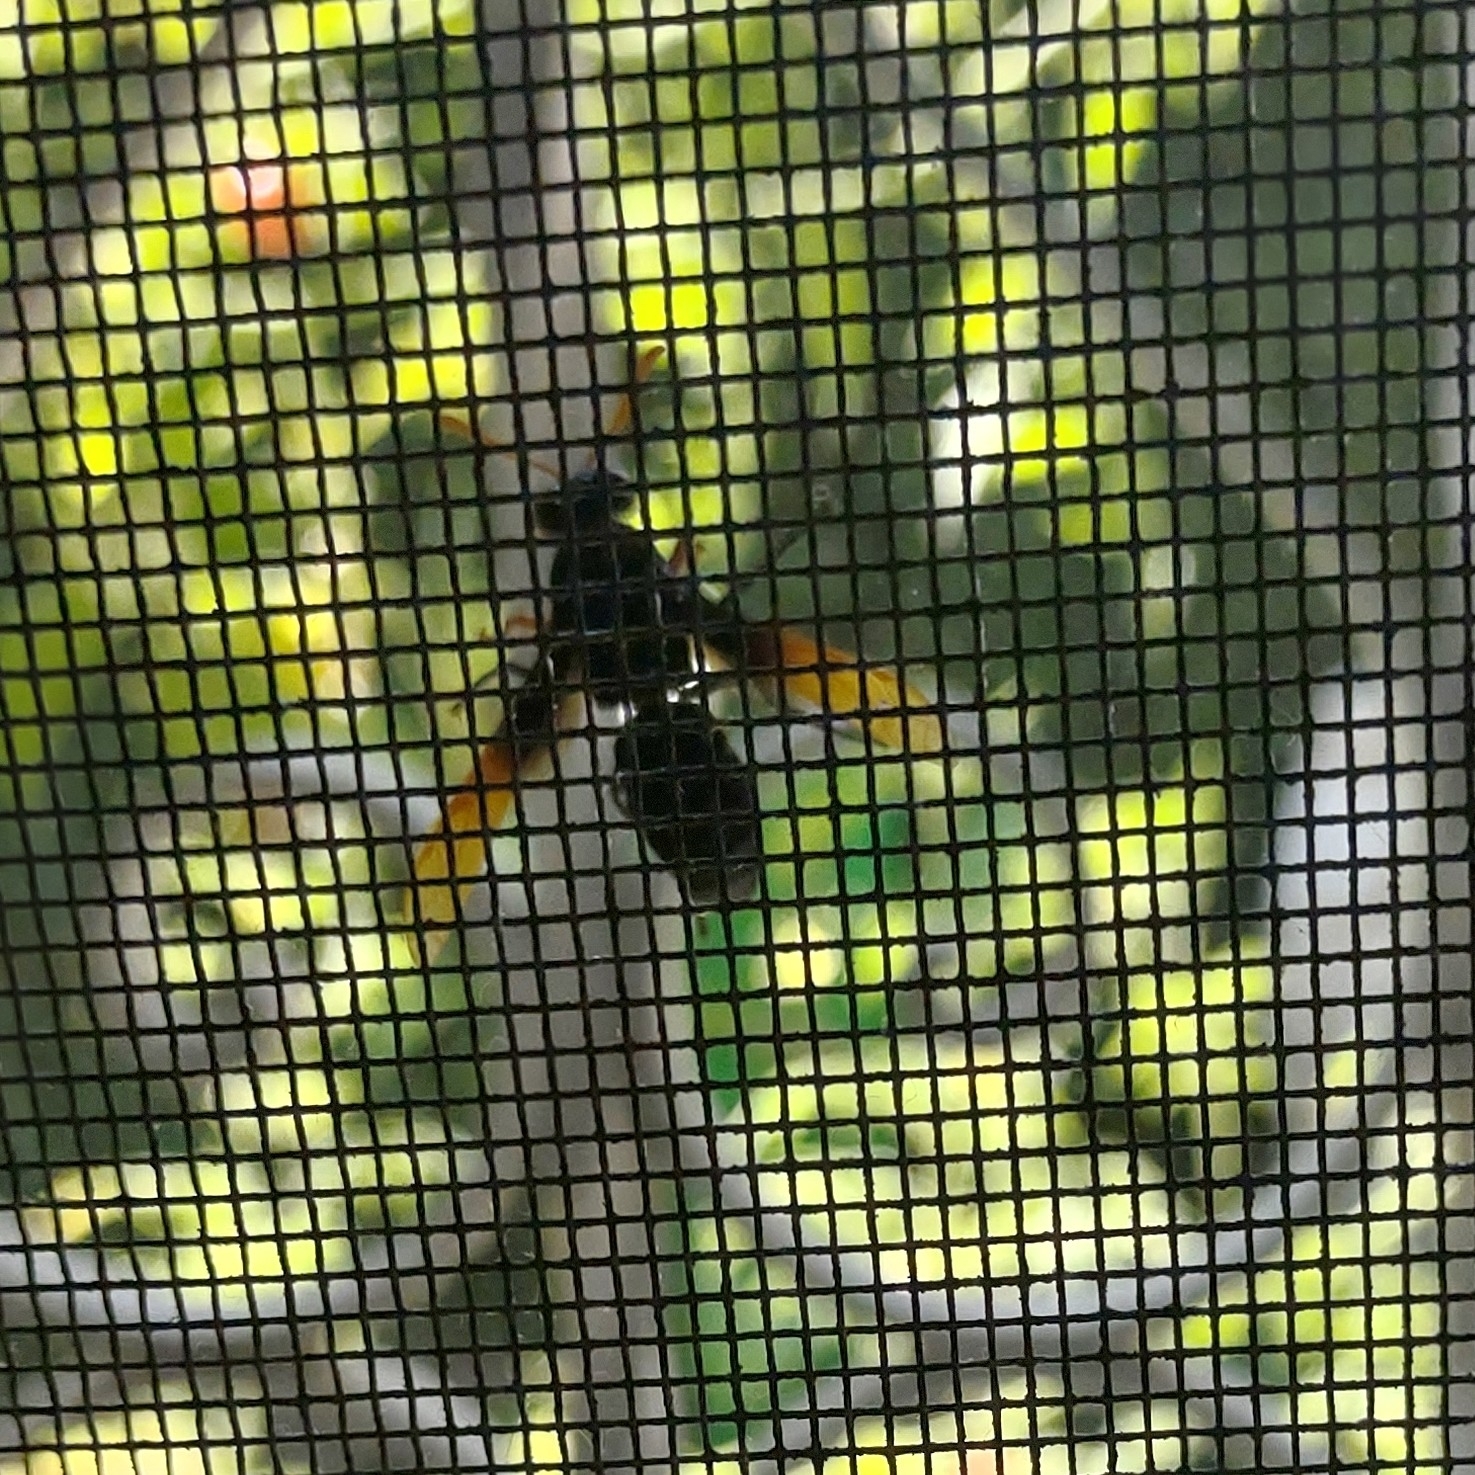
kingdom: Animalia
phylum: Arthropoda
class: Insecta
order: Hymenoptera
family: Eumenidae
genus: Rhynchium
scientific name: Rhynchium
